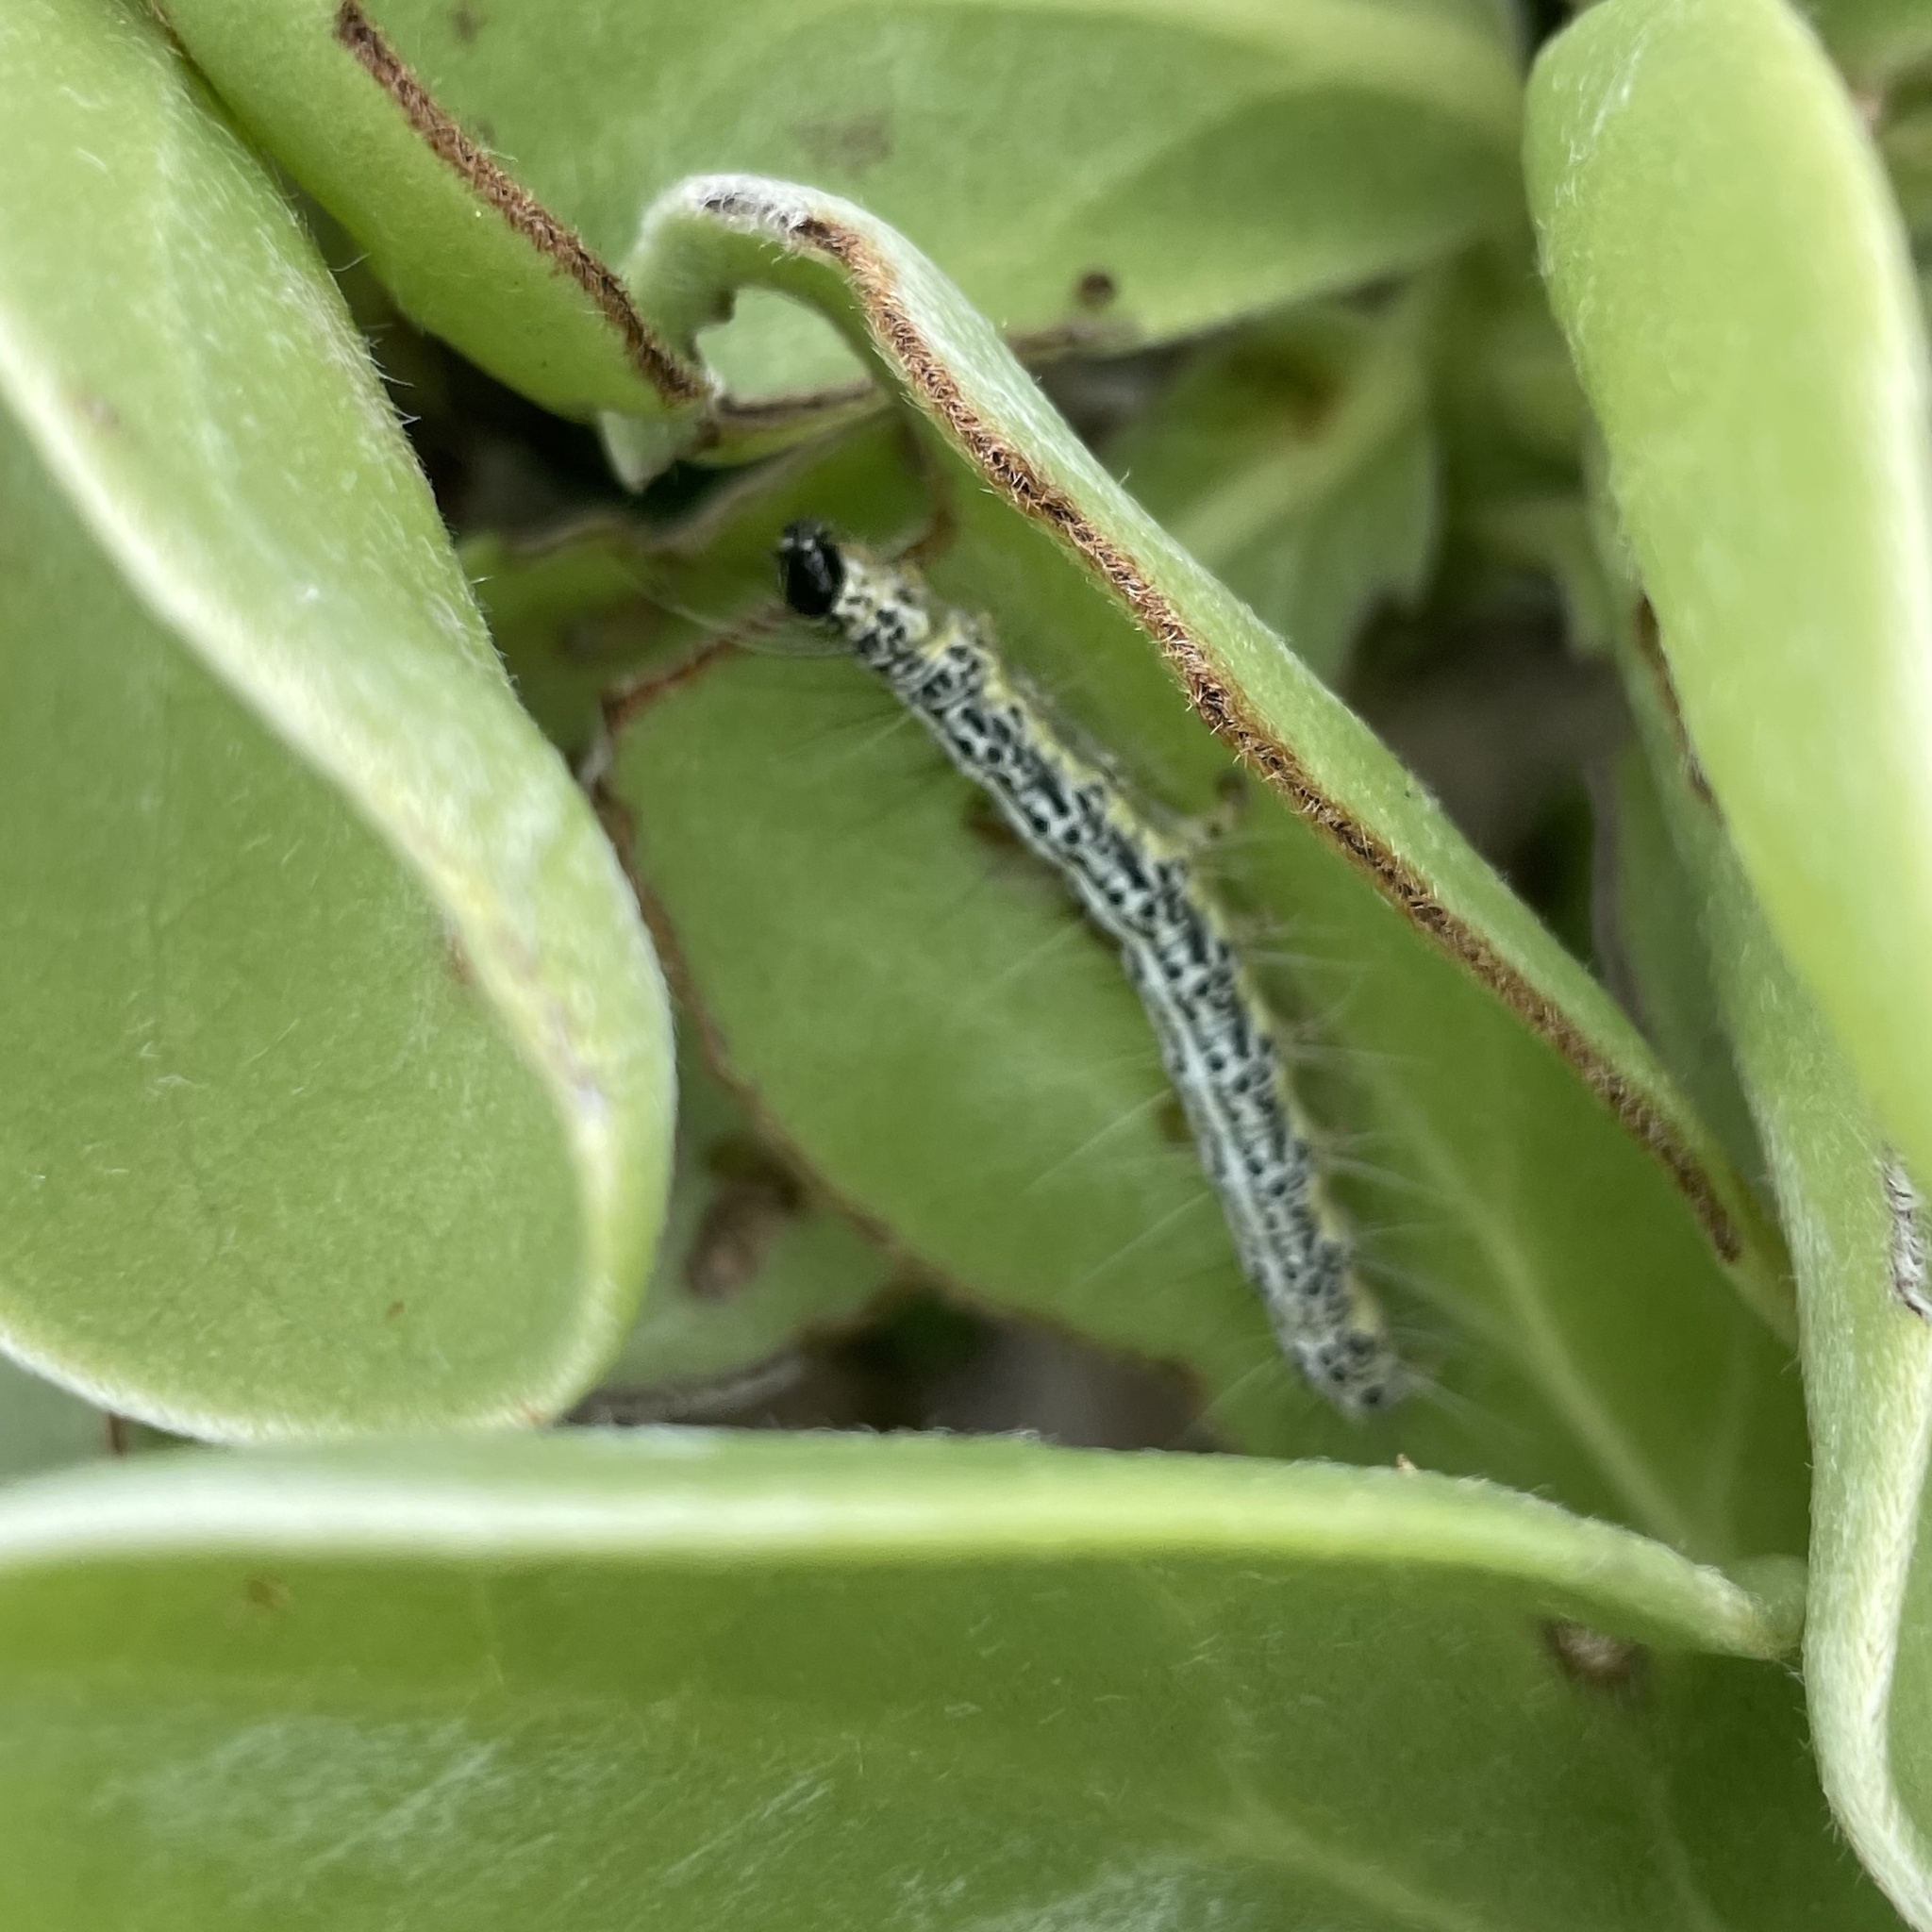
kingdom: Animalia
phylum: Arthropoda
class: Insecta
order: Lepidoptera
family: Erebidae
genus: Utetheisa
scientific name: Utetheisa inconstans
